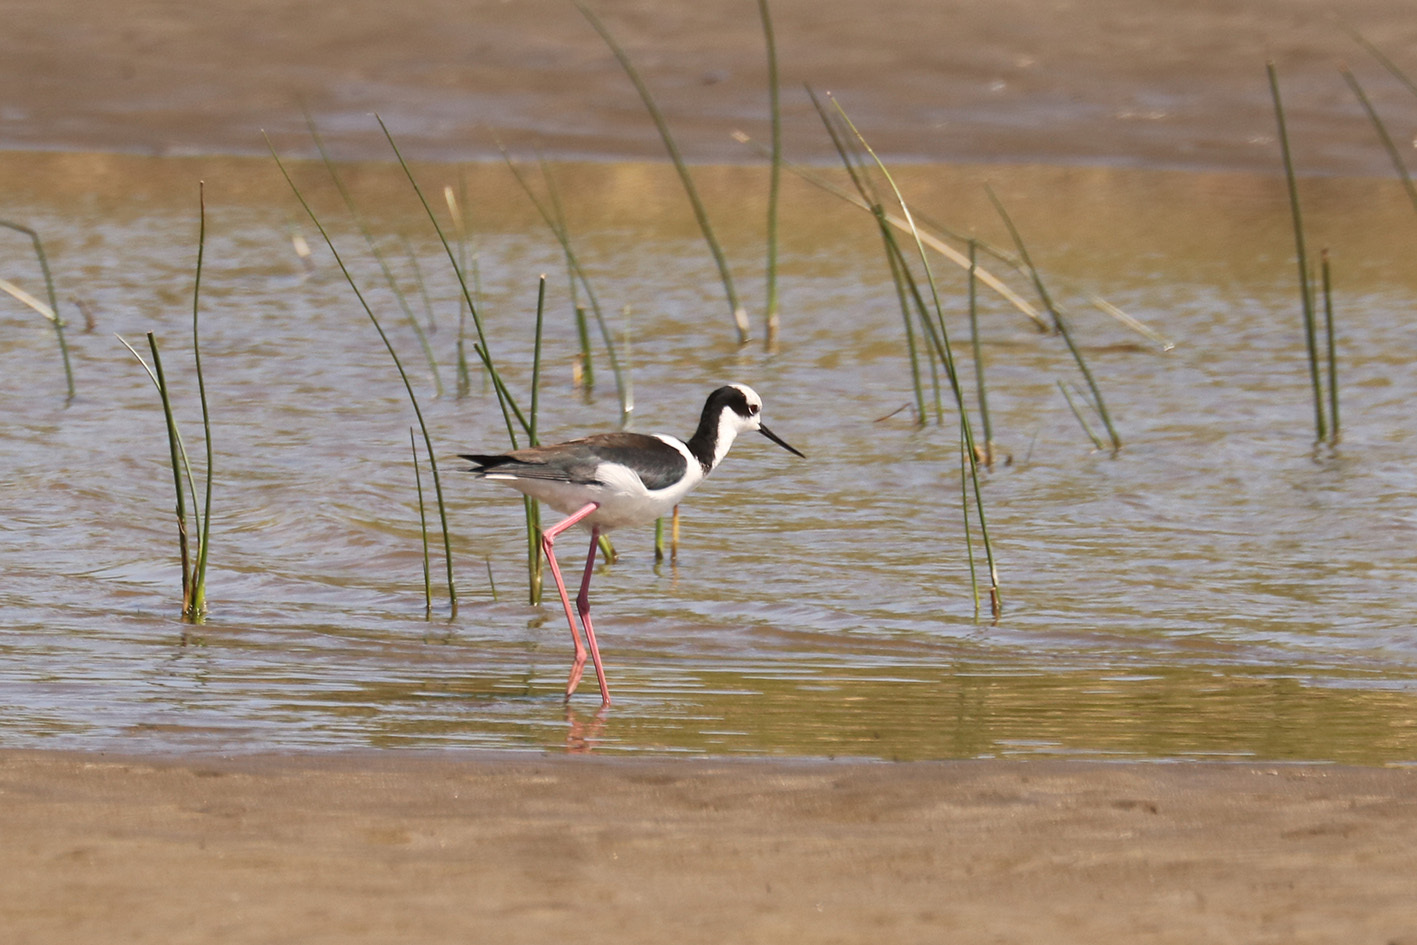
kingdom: Animalia
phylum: Chordata
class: Aves
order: Charadriiformes
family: Recurvirostridae
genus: Himantopus
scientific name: Himantopus mexicanus
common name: Black-necked stilt
